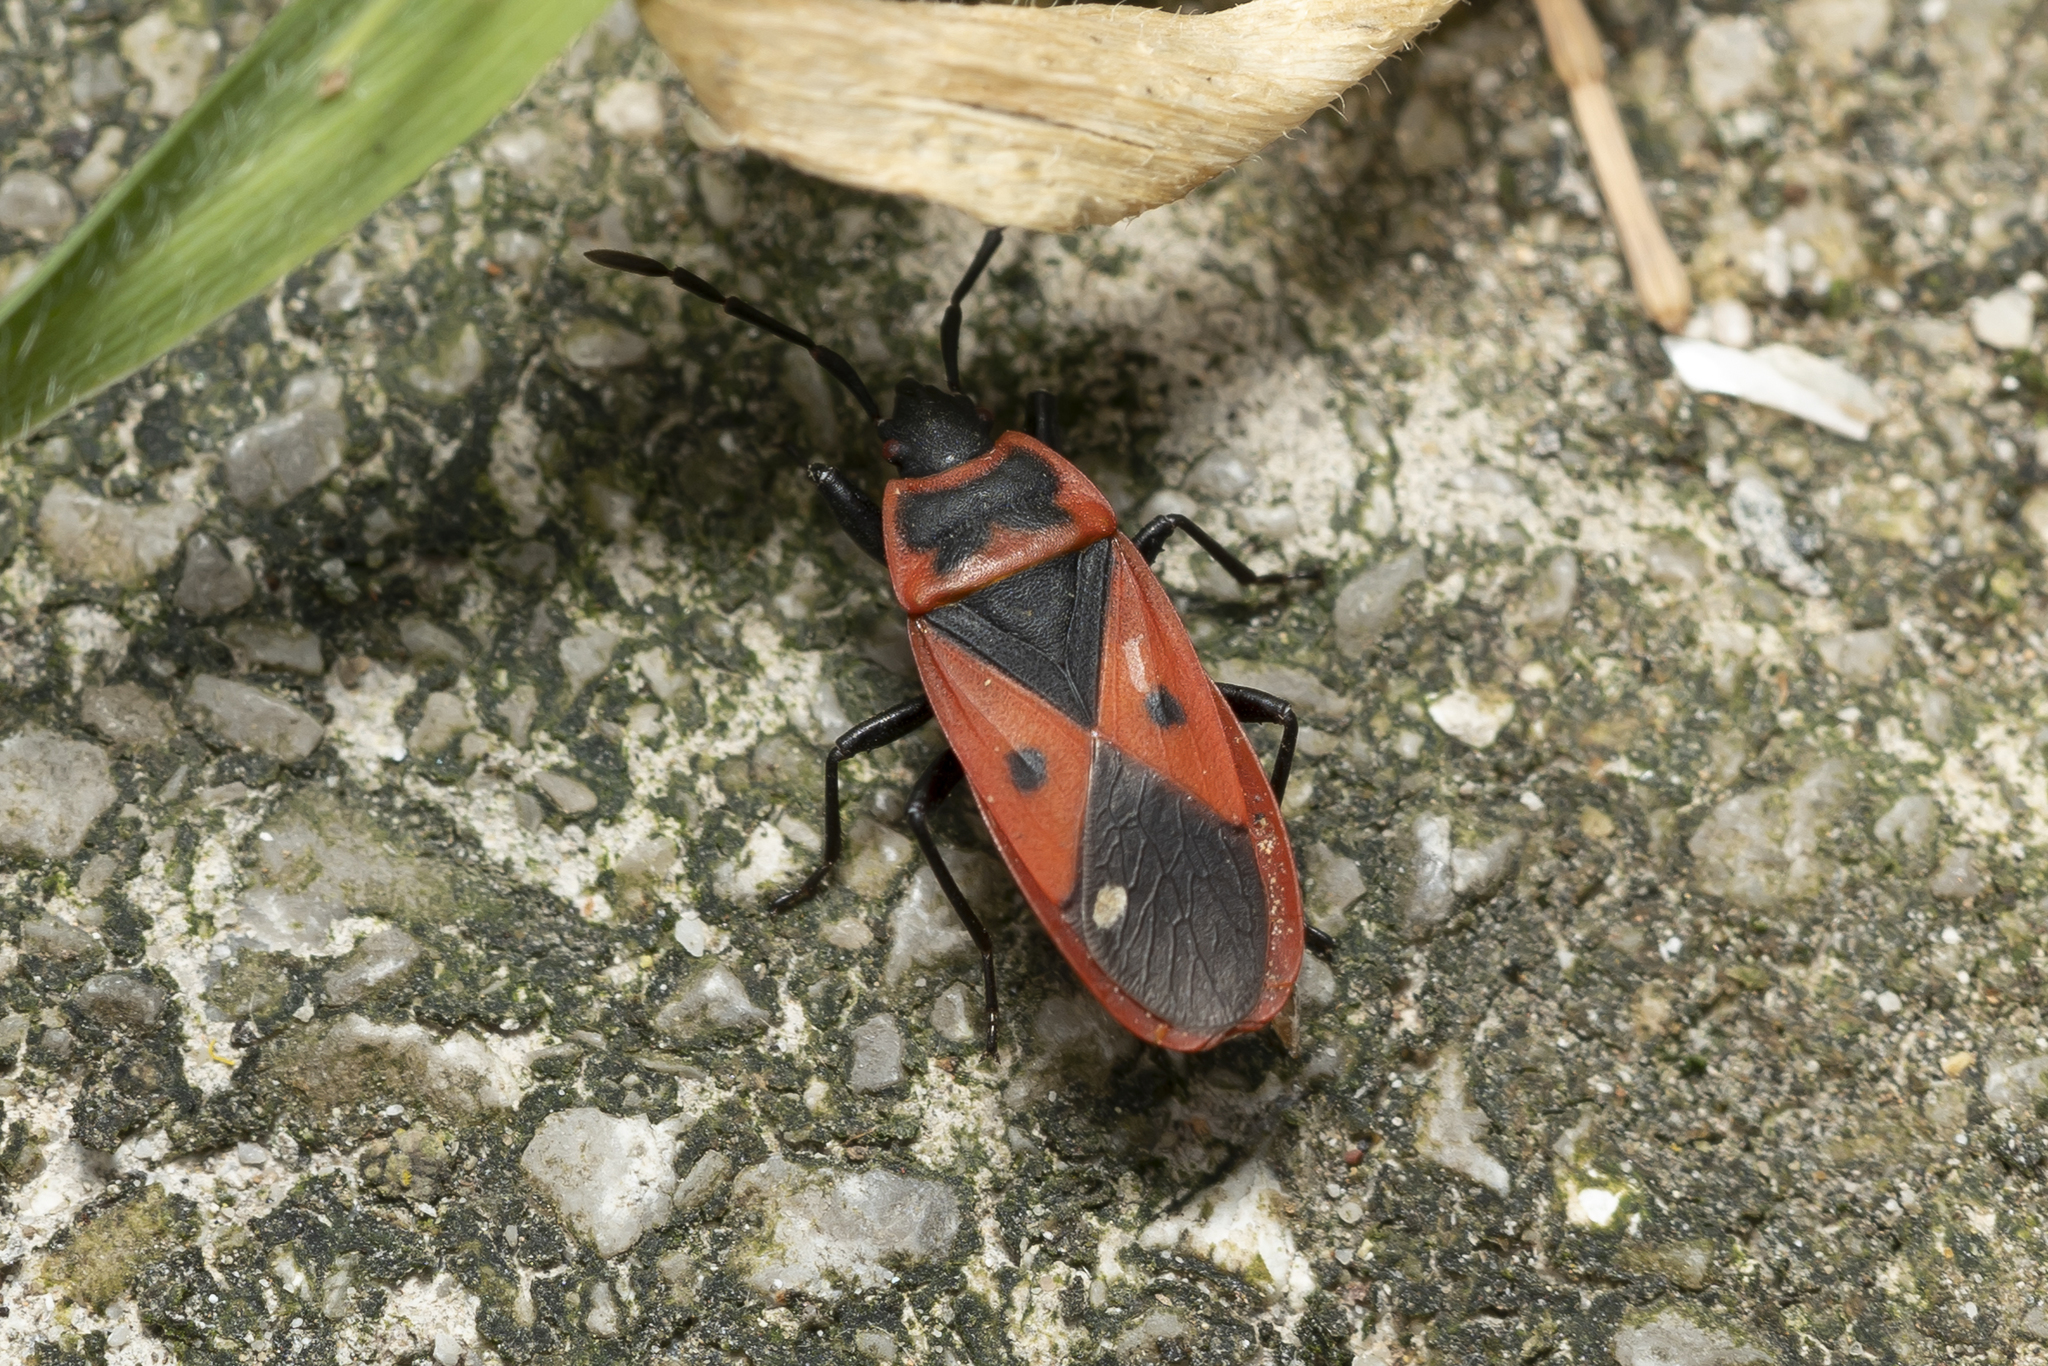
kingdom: Animalia
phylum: Arthropoda
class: Insecta
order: Hemiptera
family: Pyrrhocoridae
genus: Scantius
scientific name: Scantius aegyptius
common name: Red bug
